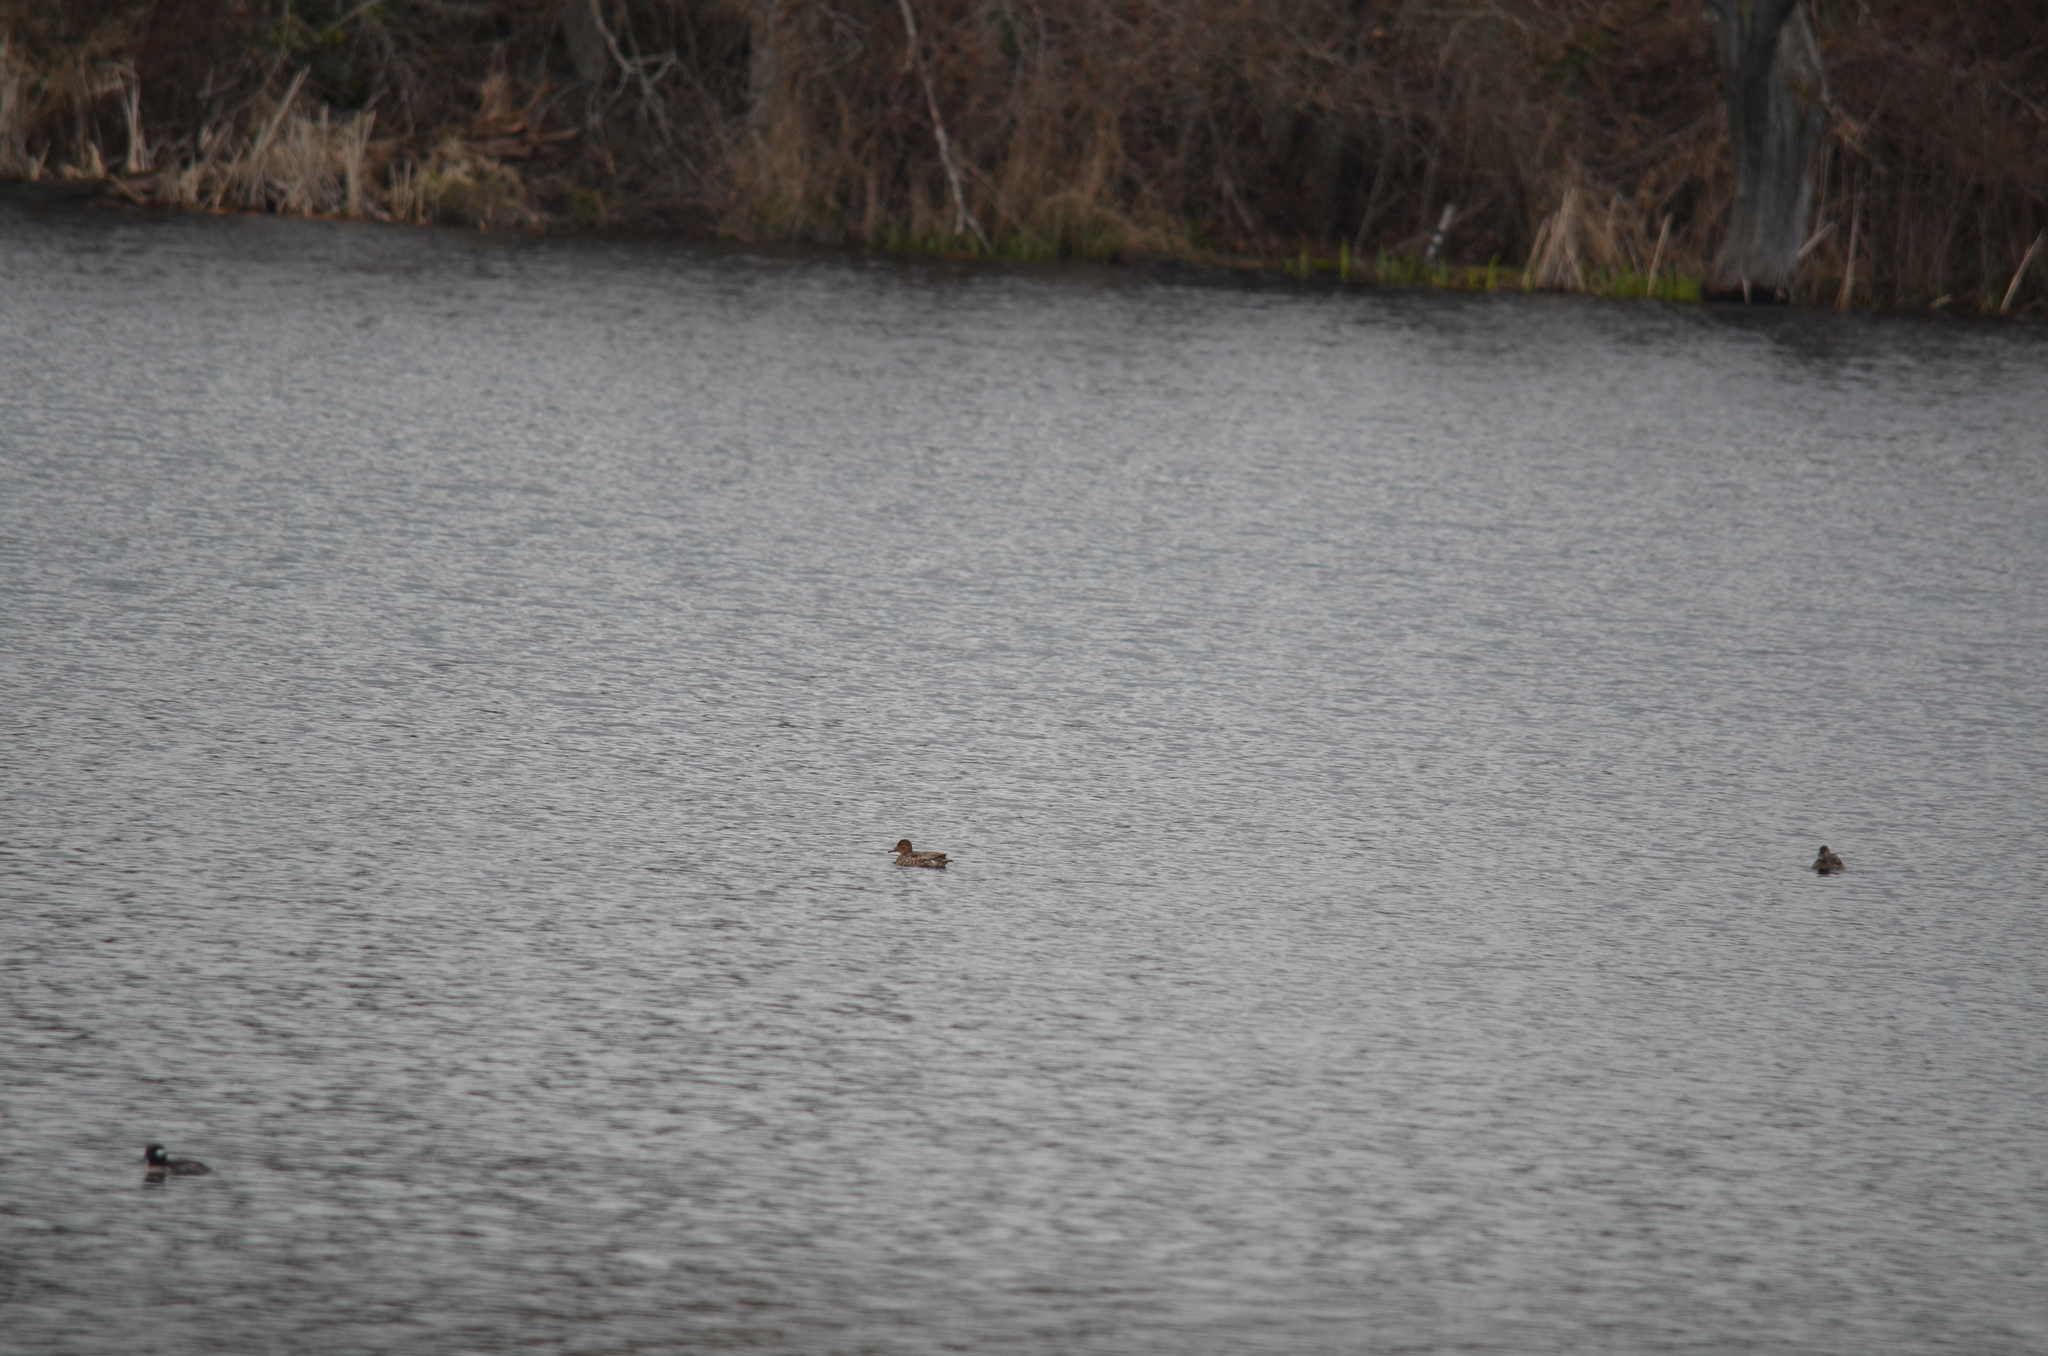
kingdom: Animalia
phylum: Chordata
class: Aves
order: Anseriformes
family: Anatidae
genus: Anas
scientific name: Anas crecca
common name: Eurasian teal
